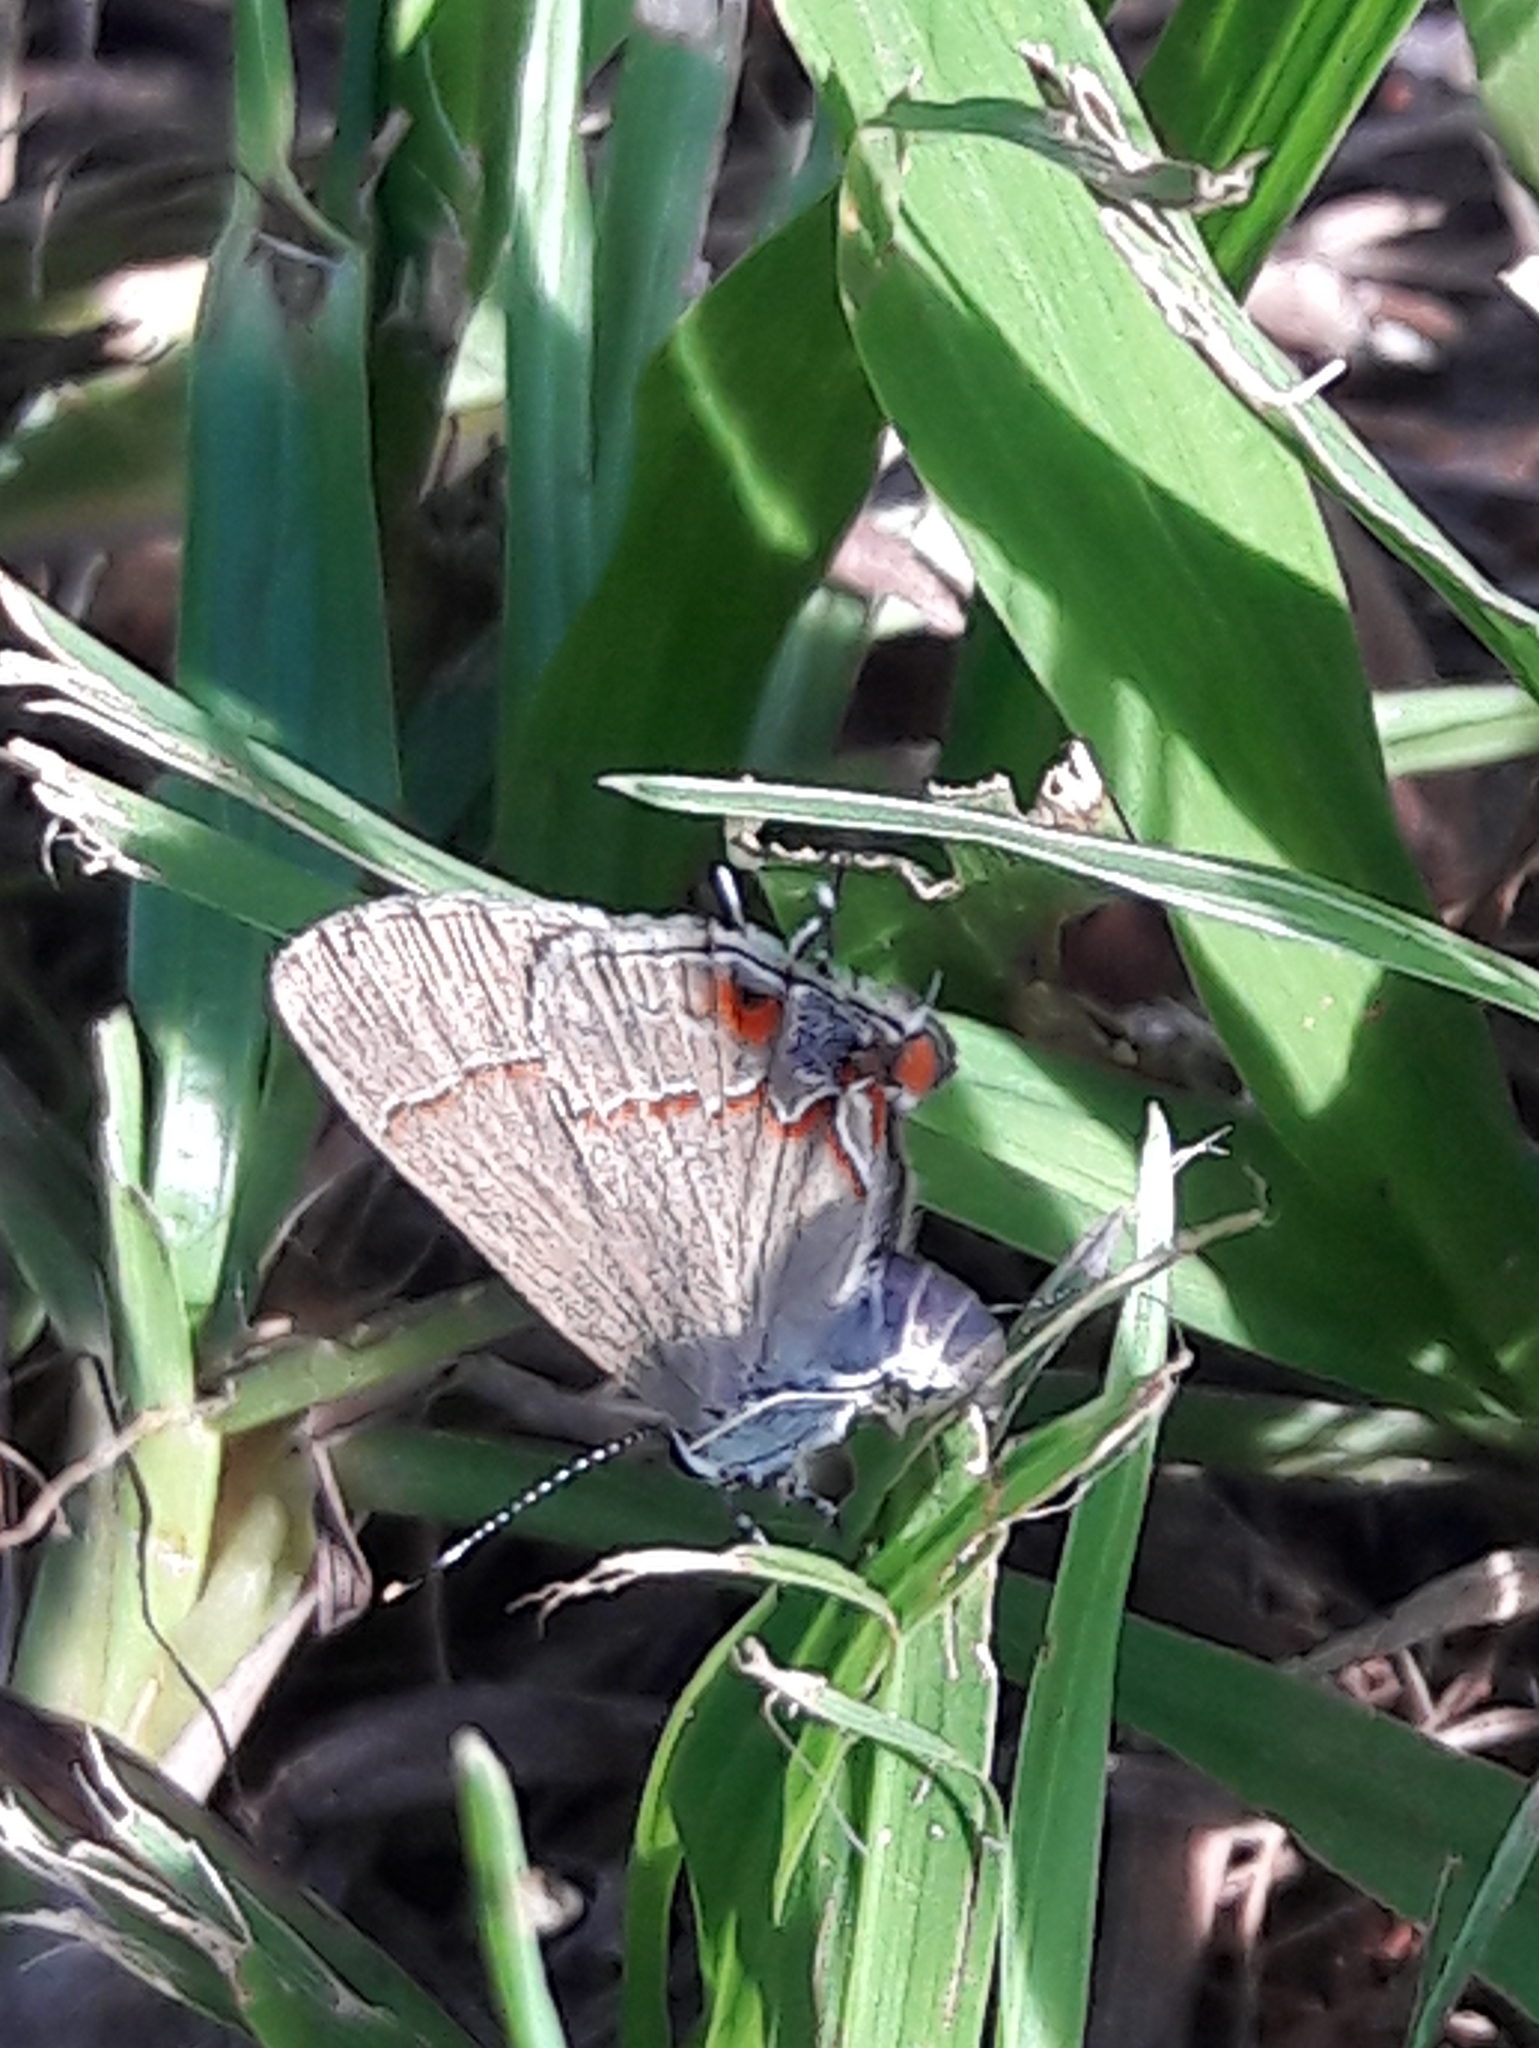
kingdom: Animalia
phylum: Arthropoda
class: Insecta
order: Lepidoptera
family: Lycaenidae
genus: Arzecla
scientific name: Arzecla tucumanensis
